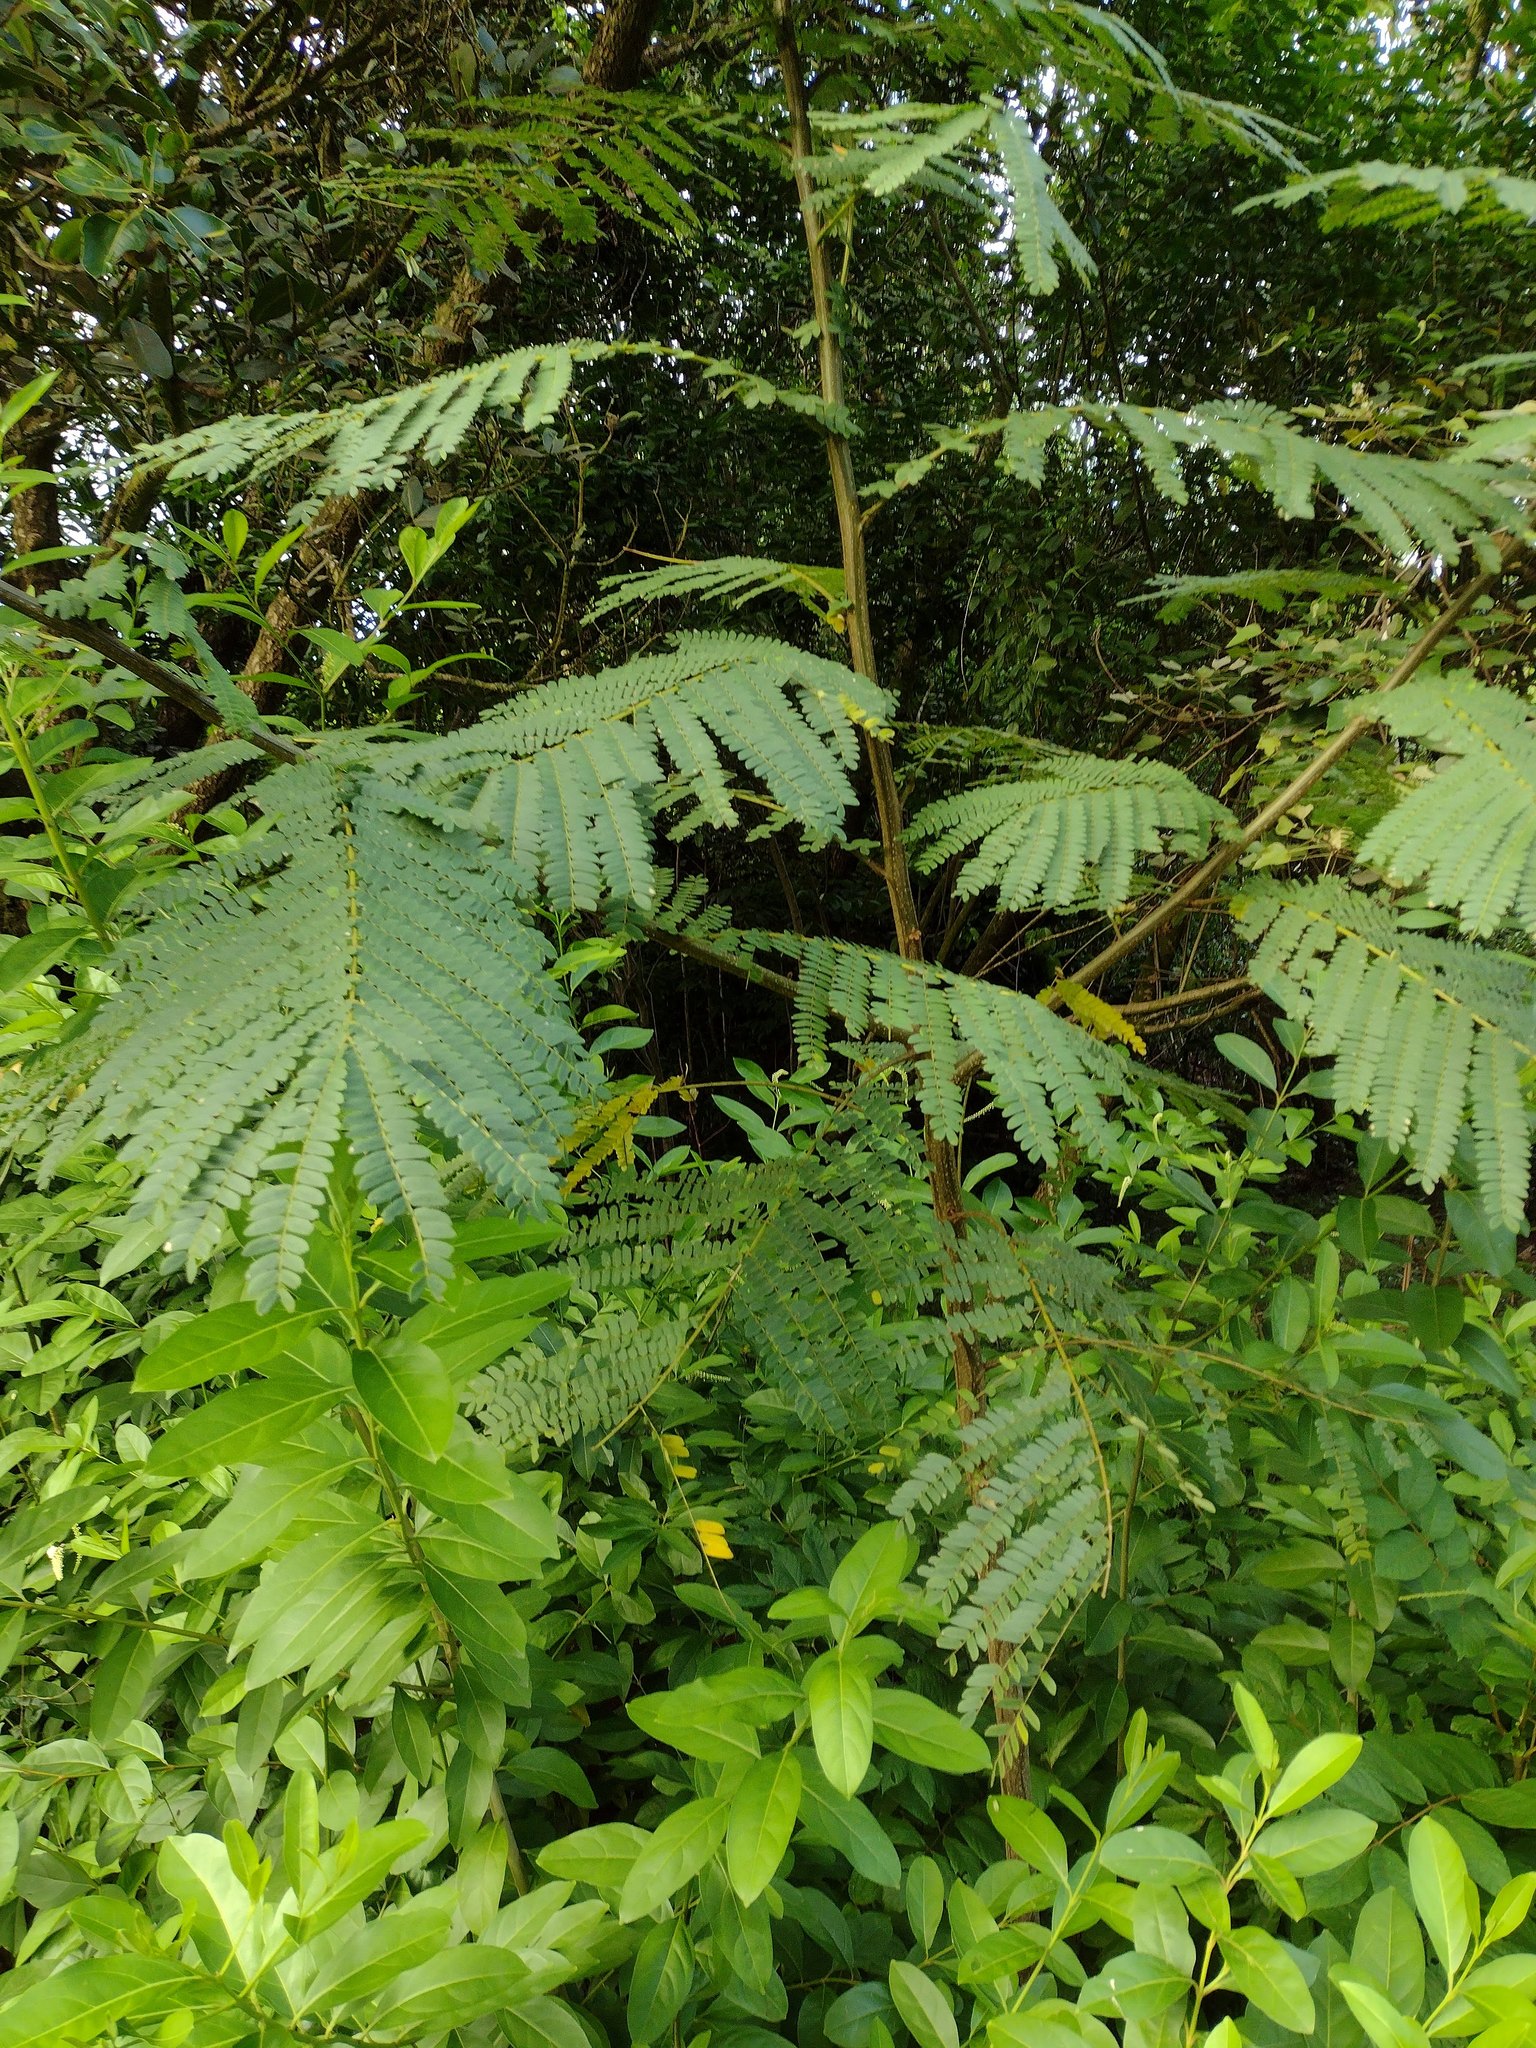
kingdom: Plantae
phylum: Tracheophyta
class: Magnoliopsida
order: Fabales
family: Fabaceae
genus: Falcataria
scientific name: Falcataria falcata
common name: Moluccan albizia
